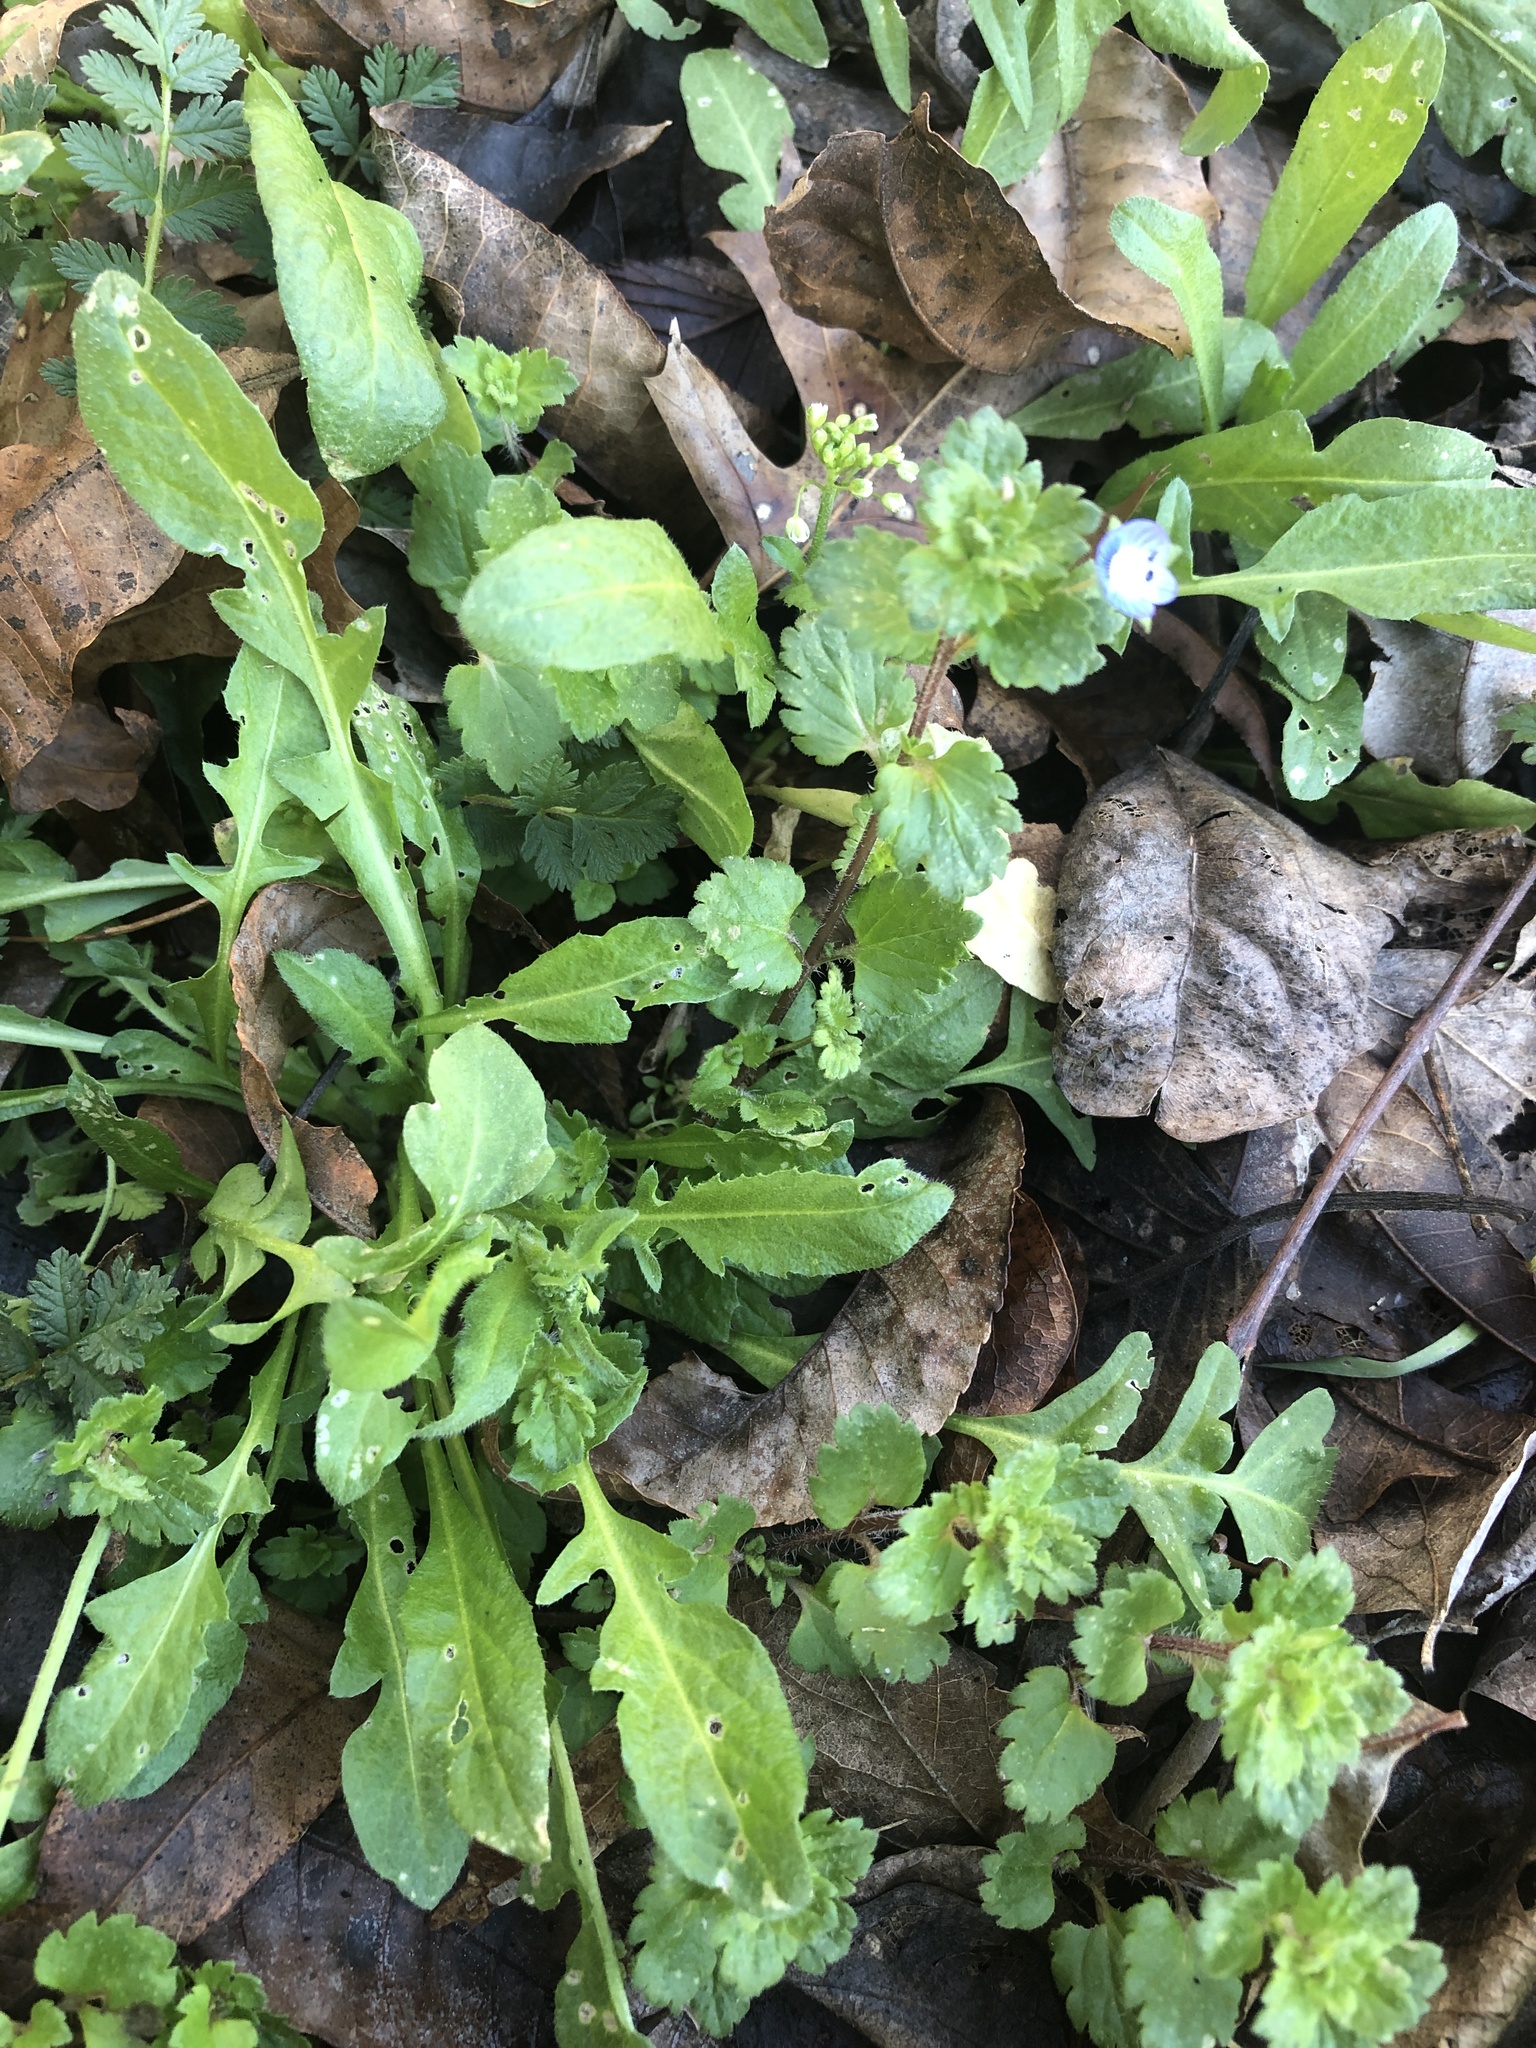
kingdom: Plantae
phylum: Tracheophyta
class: Magnoliopsida
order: Lamiales
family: Plantaginaceae
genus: Veronica
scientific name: Veronica persica
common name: Common field-speedwell
